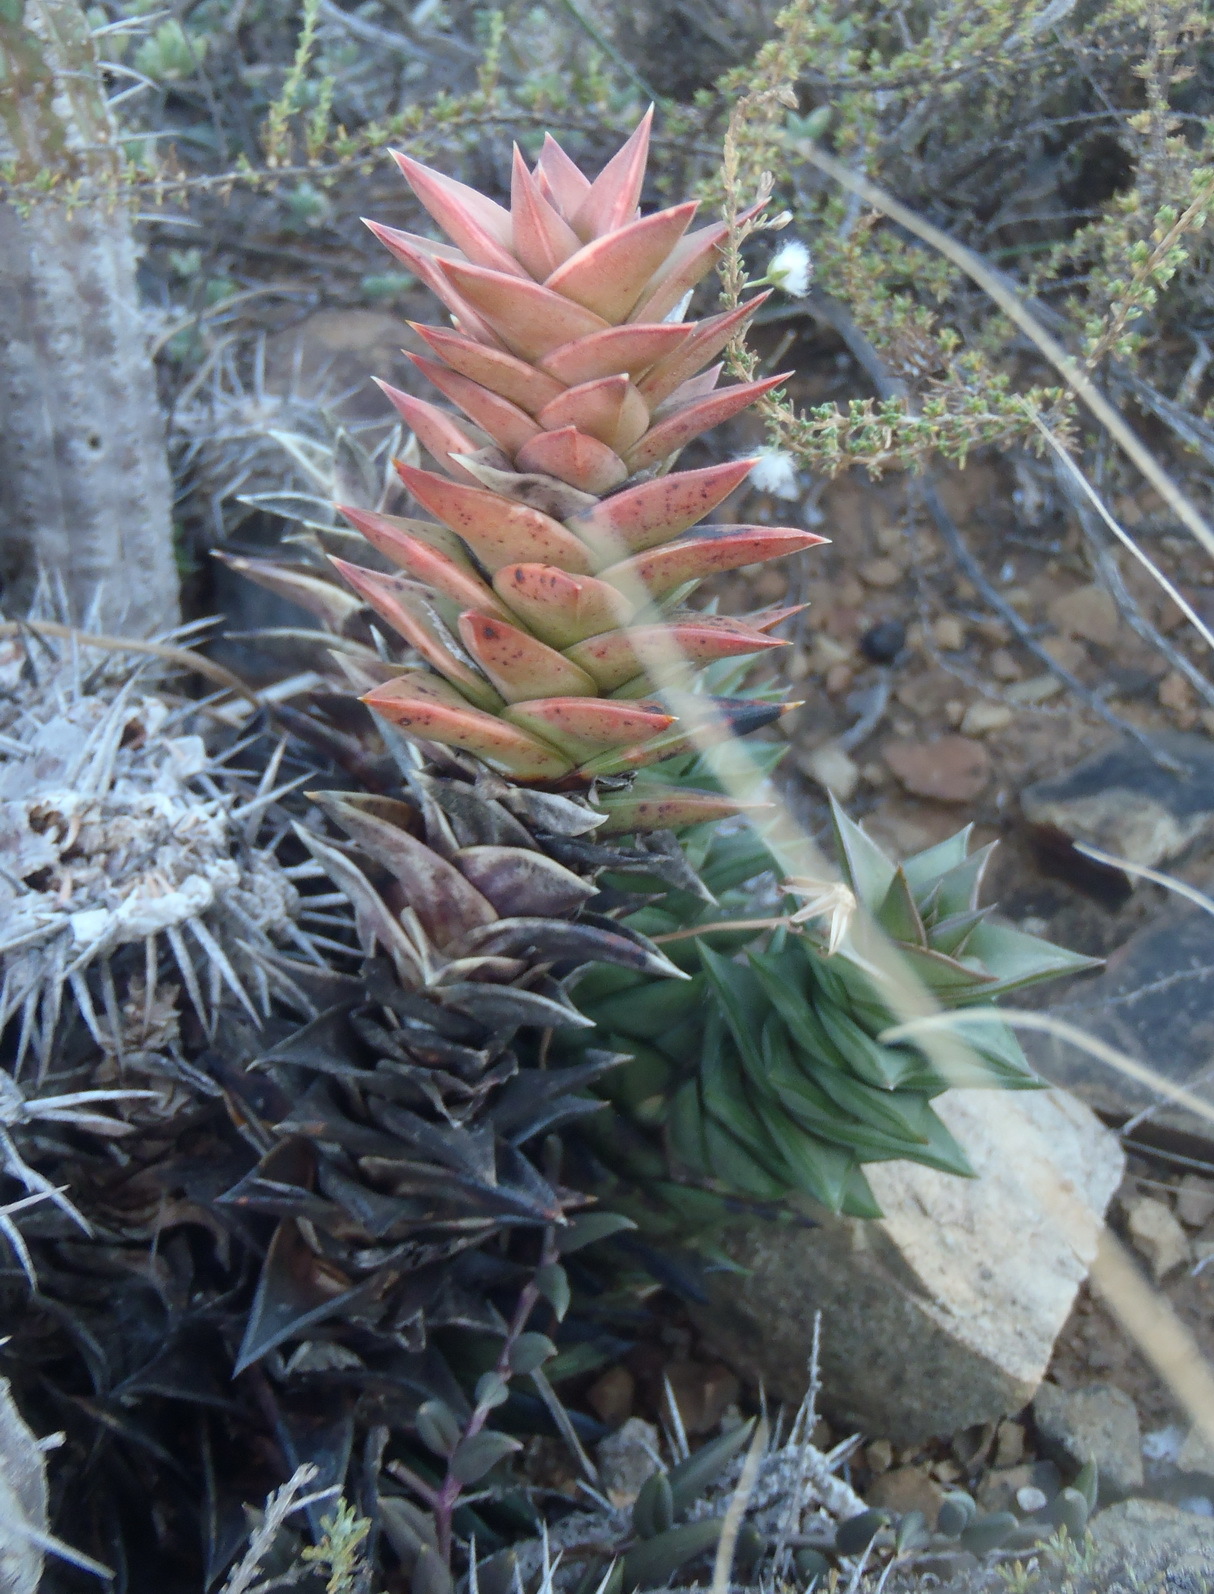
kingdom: Plantae
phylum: Tracheophyta
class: Liliopsida
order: Asparagales
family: Asphodelaceae
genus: Astroloba
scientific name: Astroloba congesta
